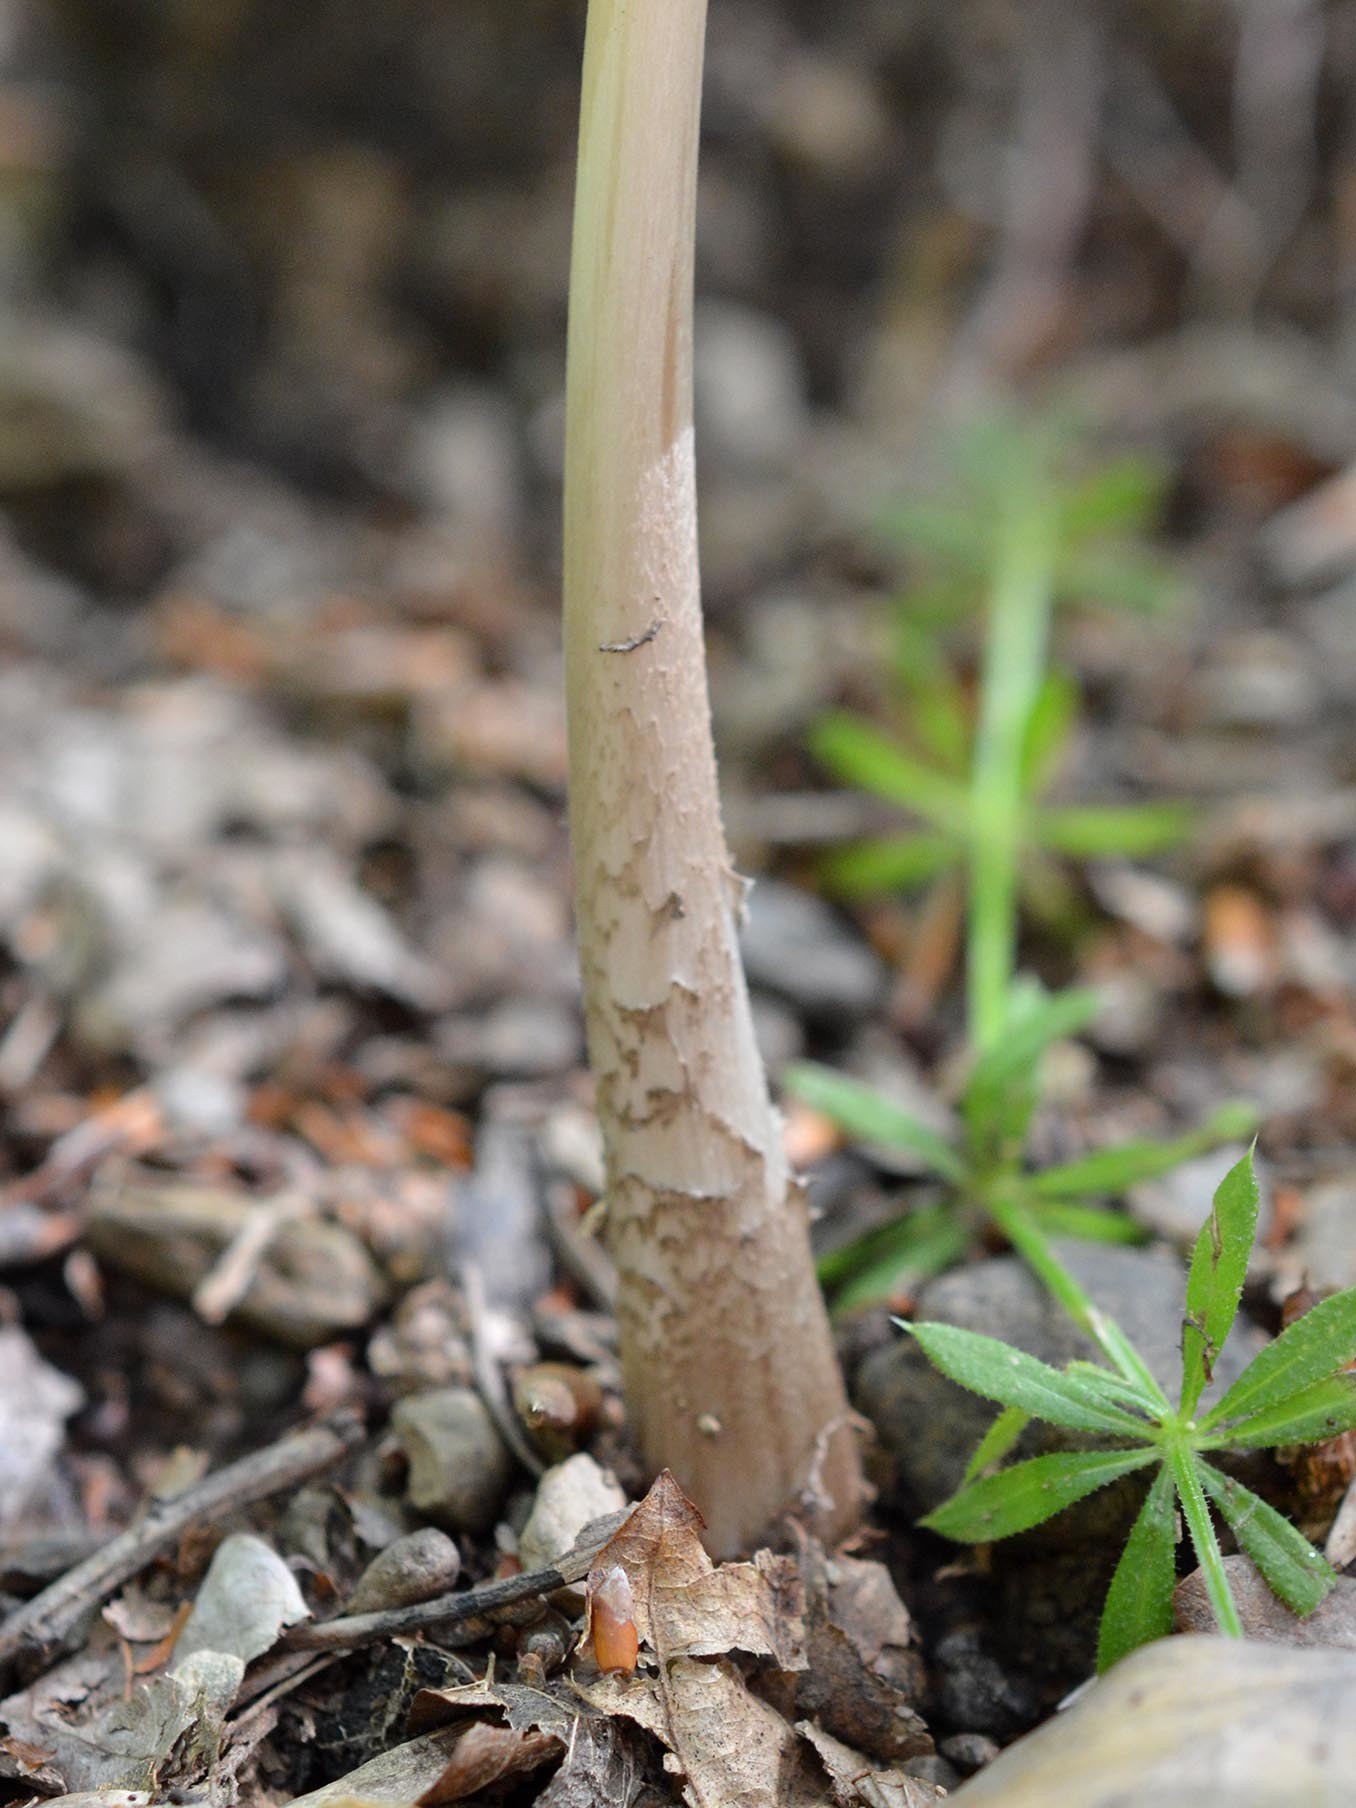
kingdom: Fungi
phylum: Basidiomycota
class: Agaricomycetes
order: Agaricales
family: Physalacriaceae
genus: Hymenopellis
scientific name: Hymenopellis radicata
